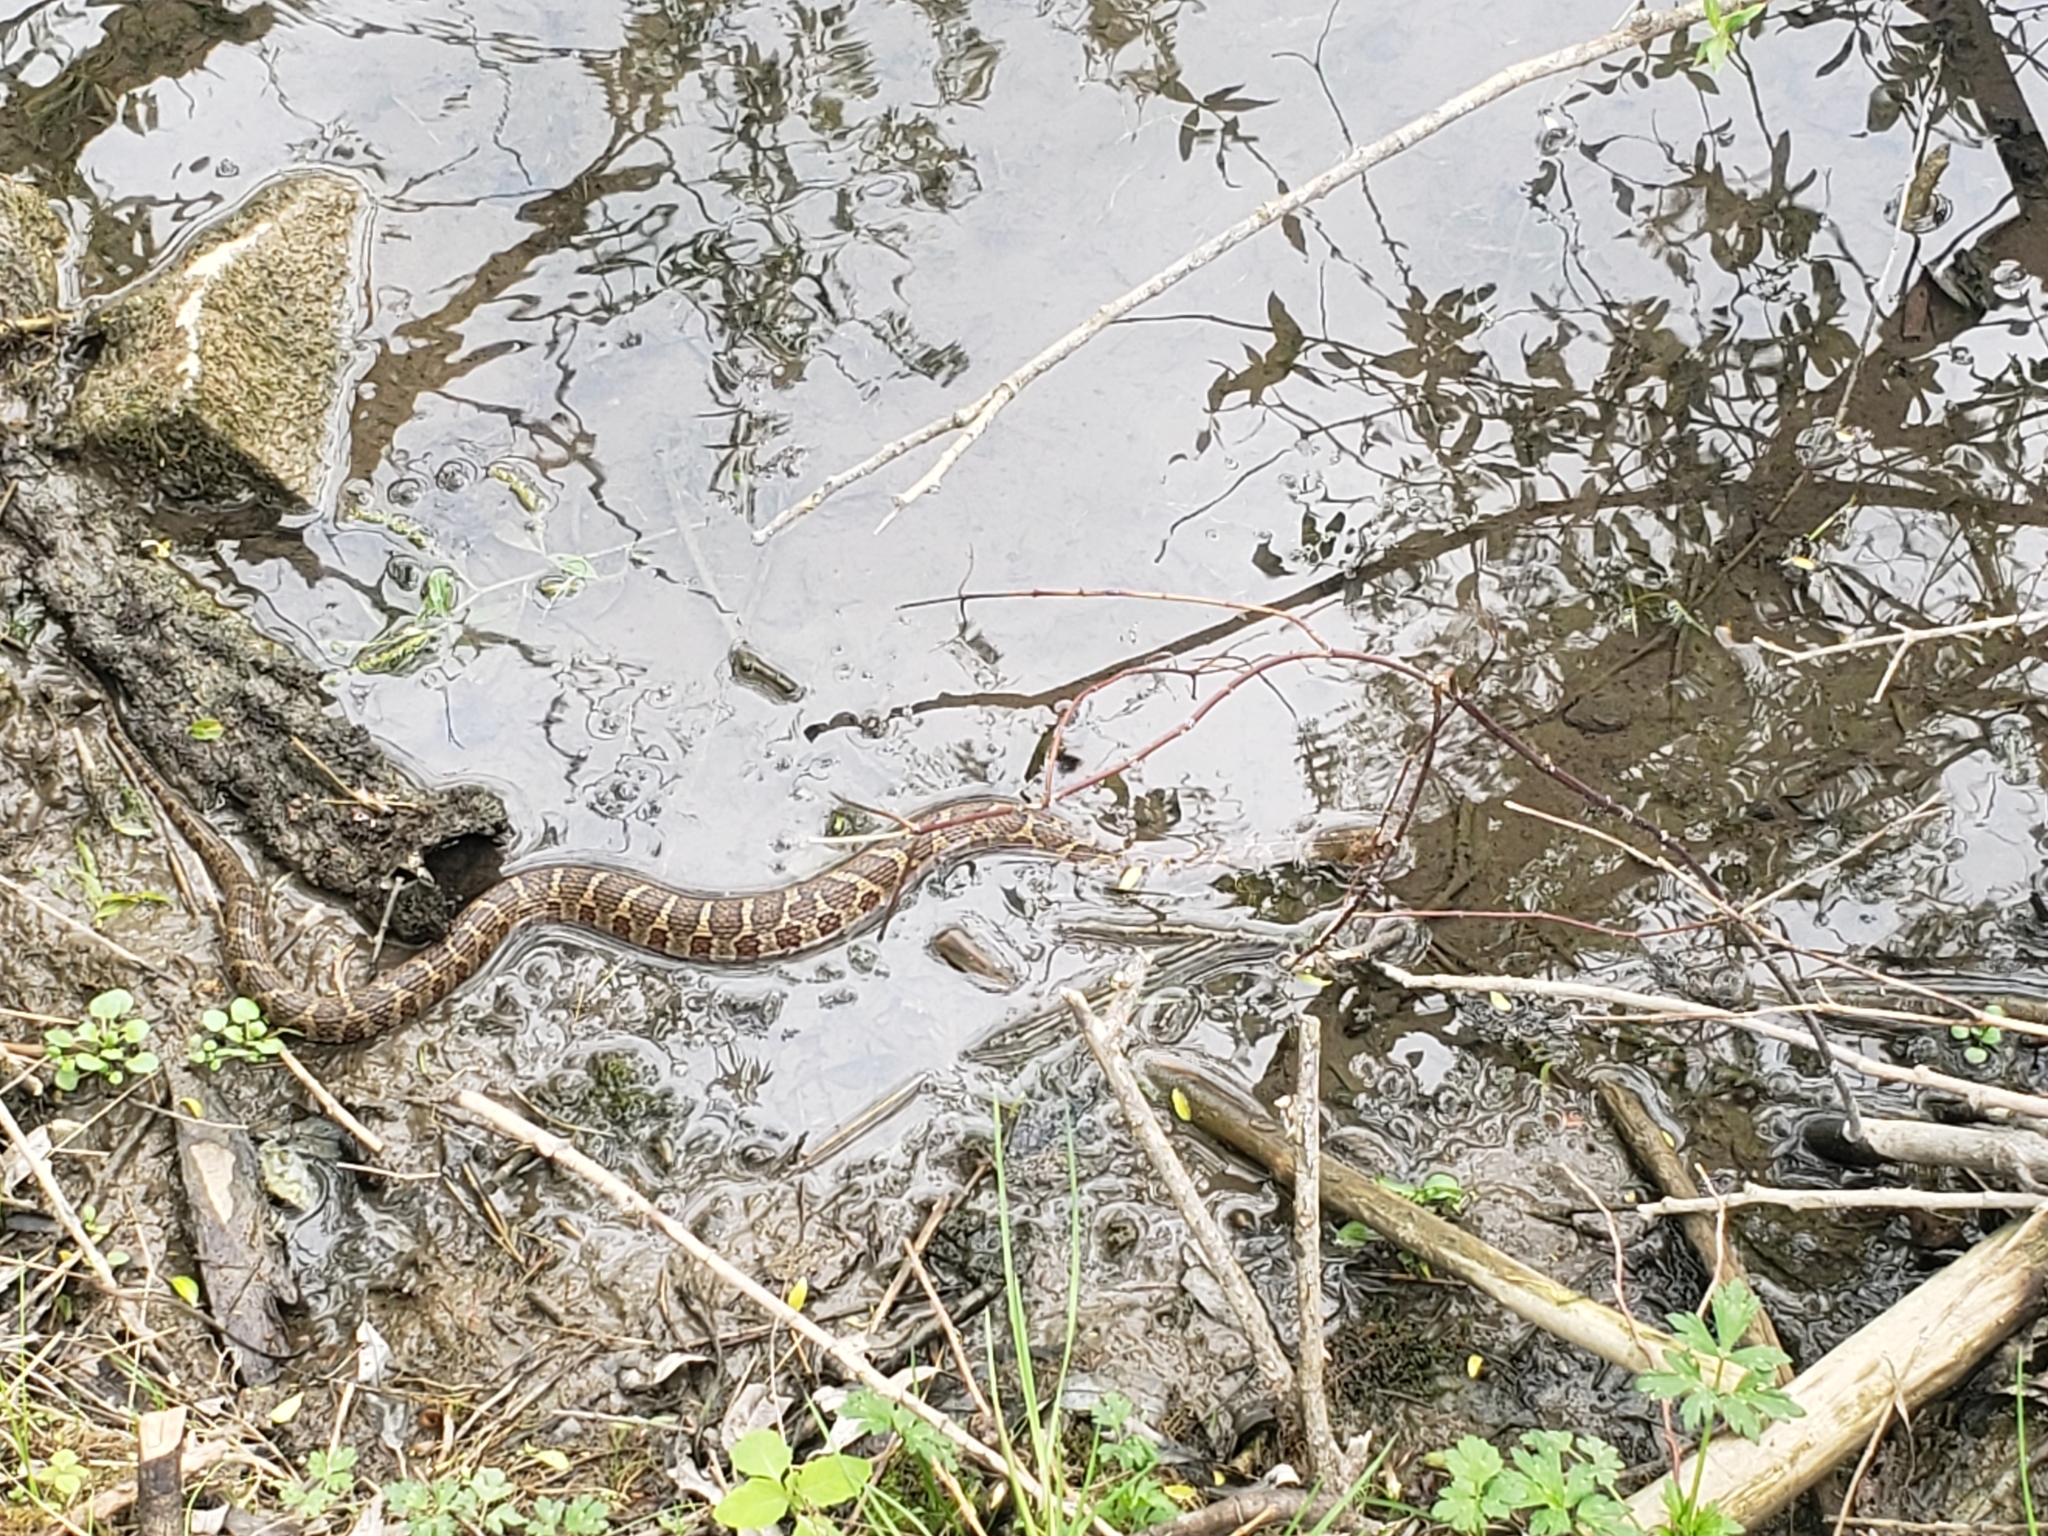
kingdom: Animalia
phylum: Chordata
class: Squamata
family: Colubridae
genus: Nerodia
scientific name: Nerodia sipedon
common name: Northern water snake
